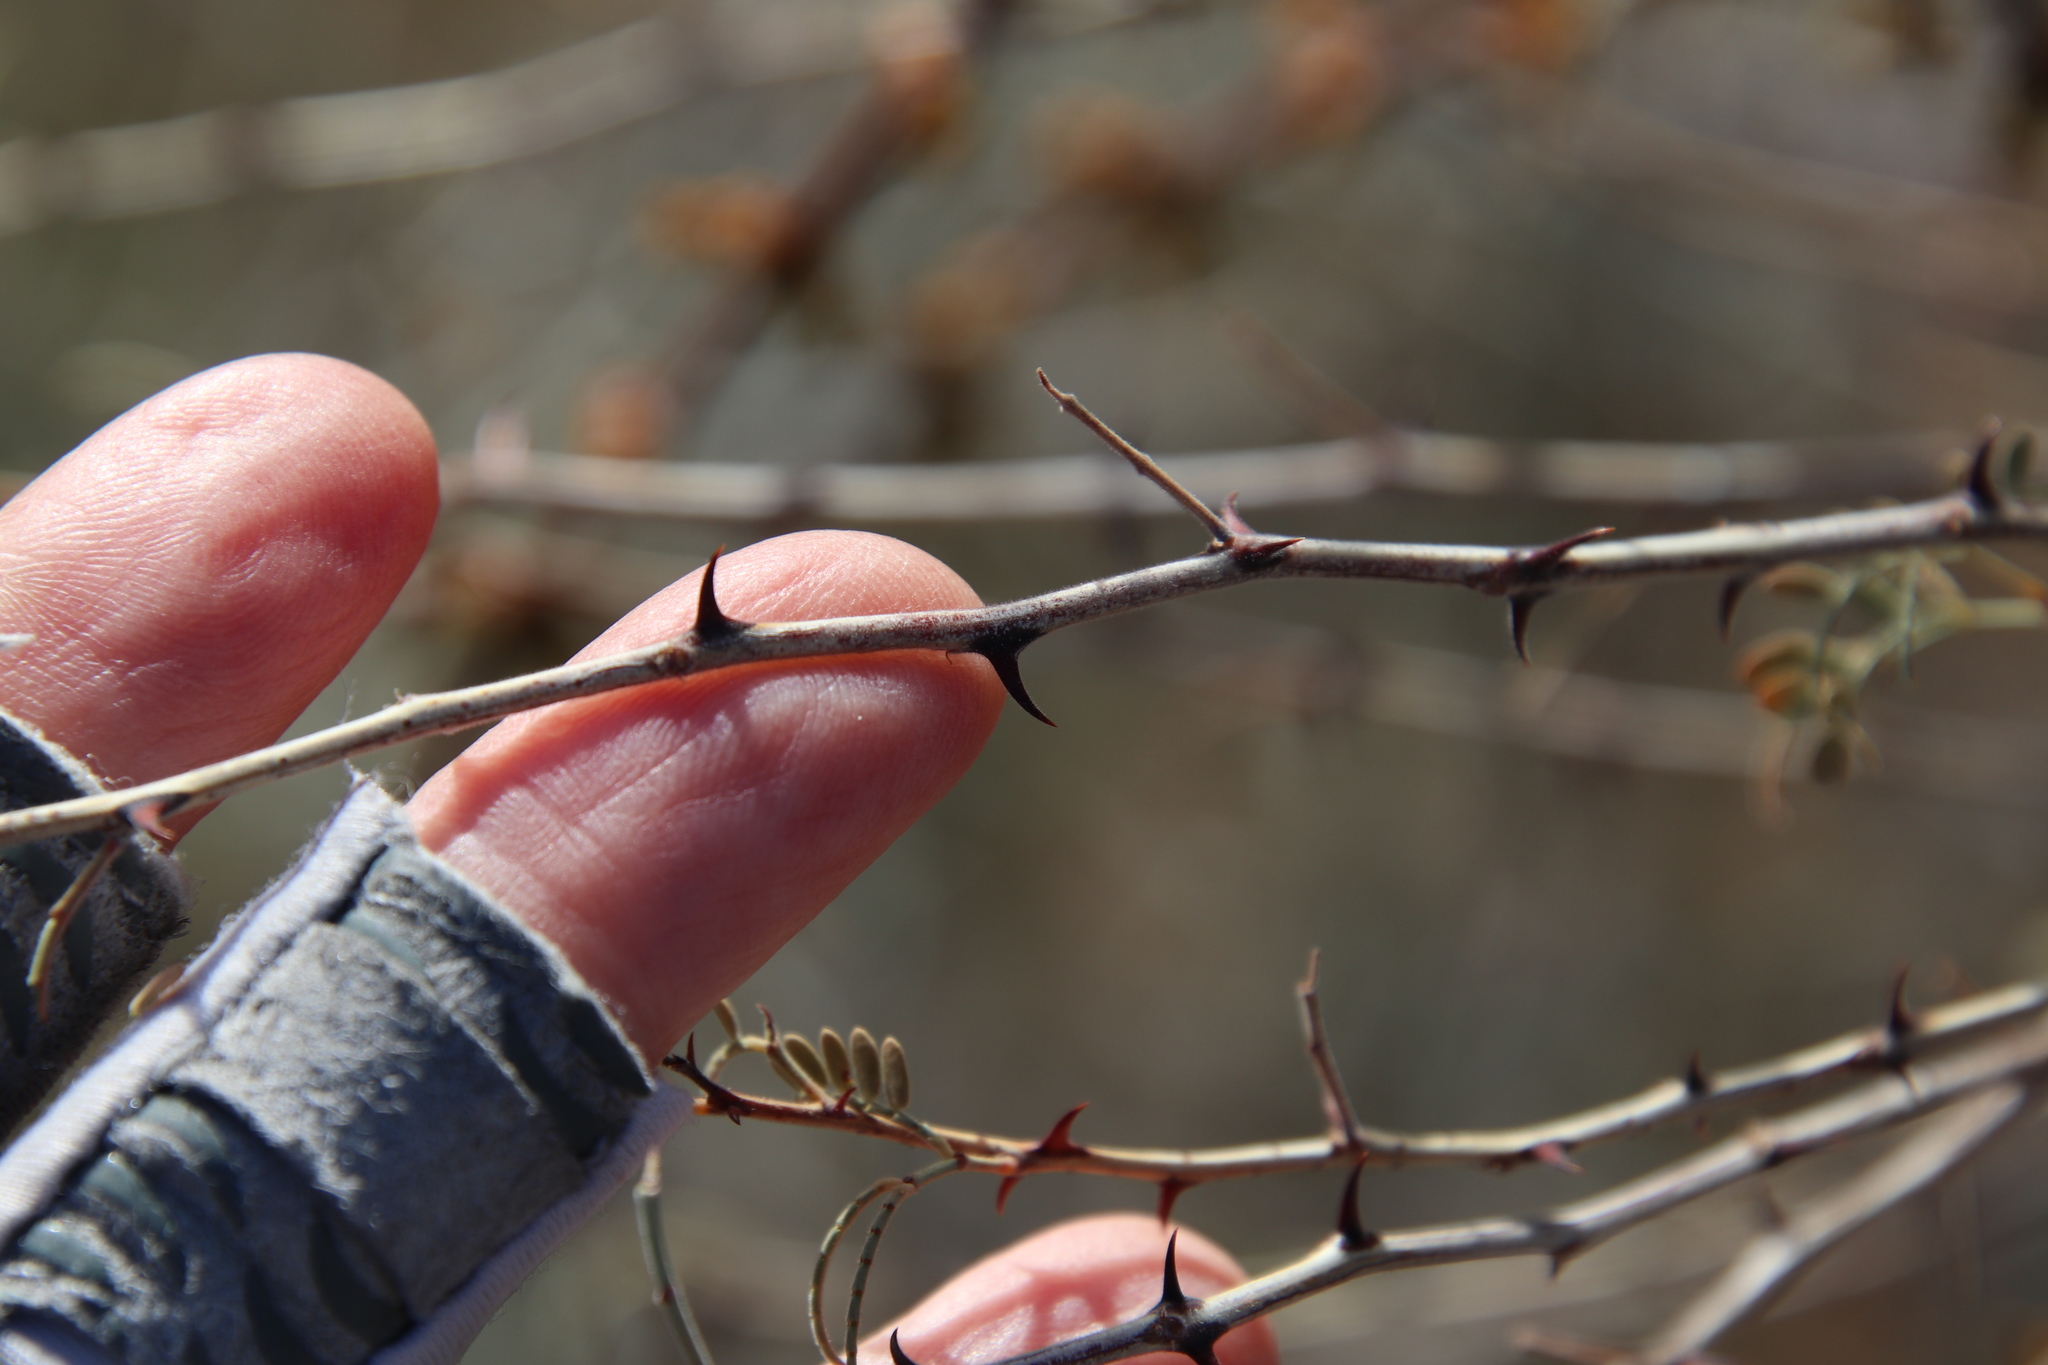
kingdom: Plantae
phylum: Tracheophyta
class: Magnoliopsida
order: Fabales
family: Fabaceae
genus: Senegalia
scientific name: Senegalia greggii
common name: Texas-mimosa
